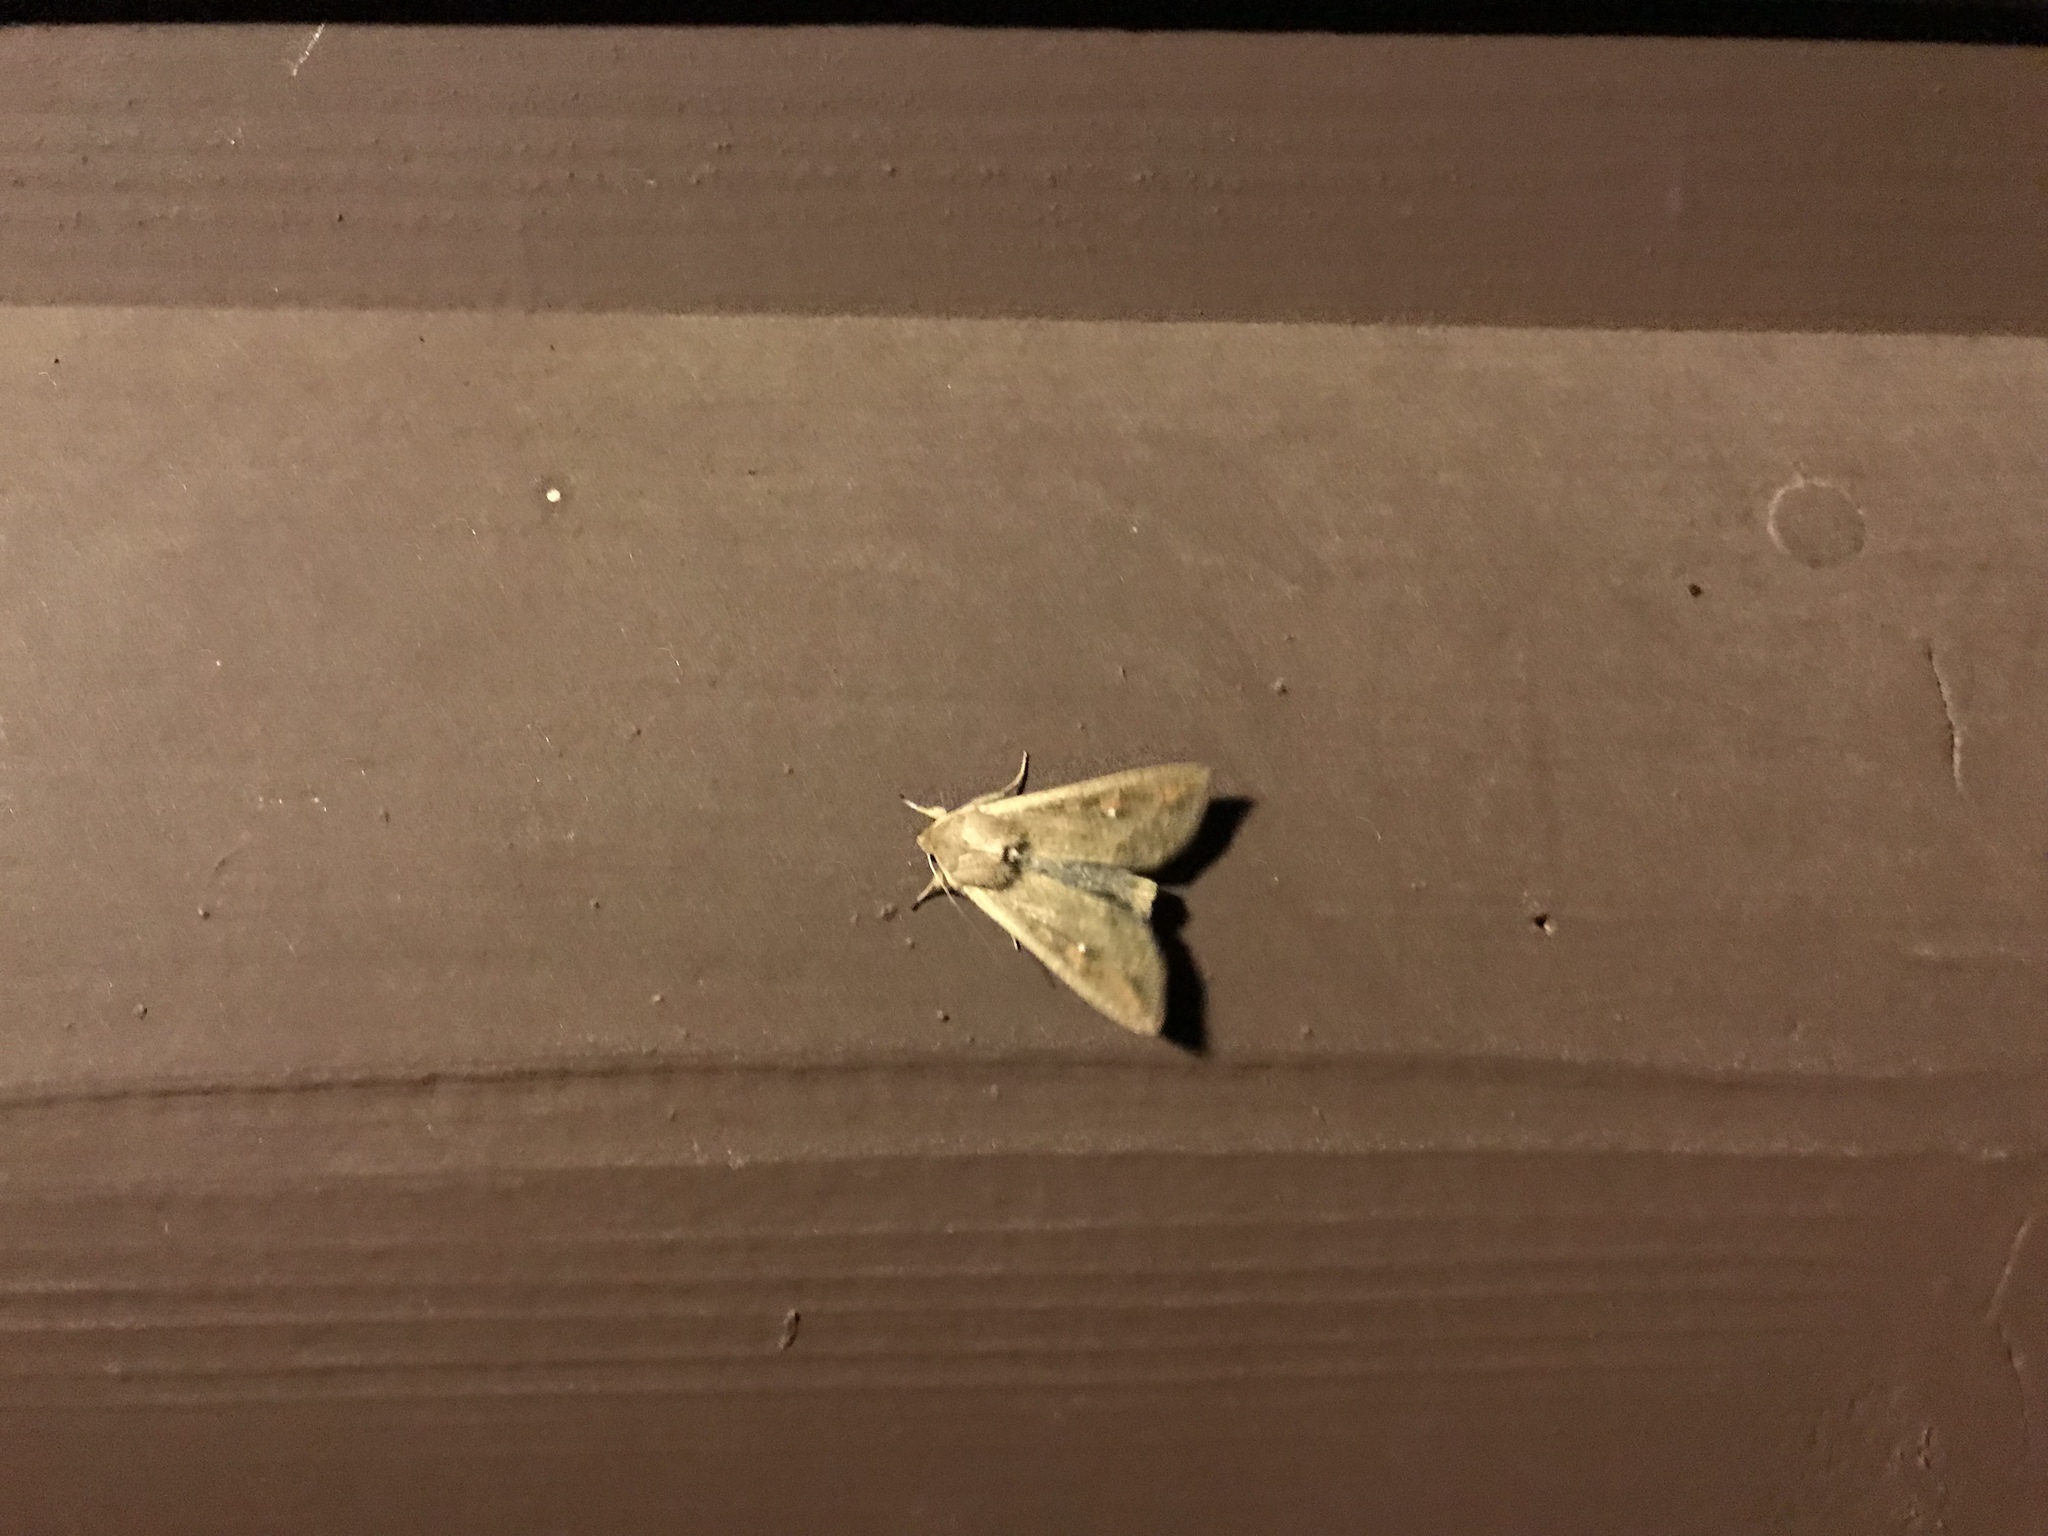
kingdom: Animalia
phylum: Arthropoda
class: Insecta
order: Lepidoptera
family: Noctuidae
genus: Mythimna
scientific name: Mythimna unipuncta
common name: White-speck
